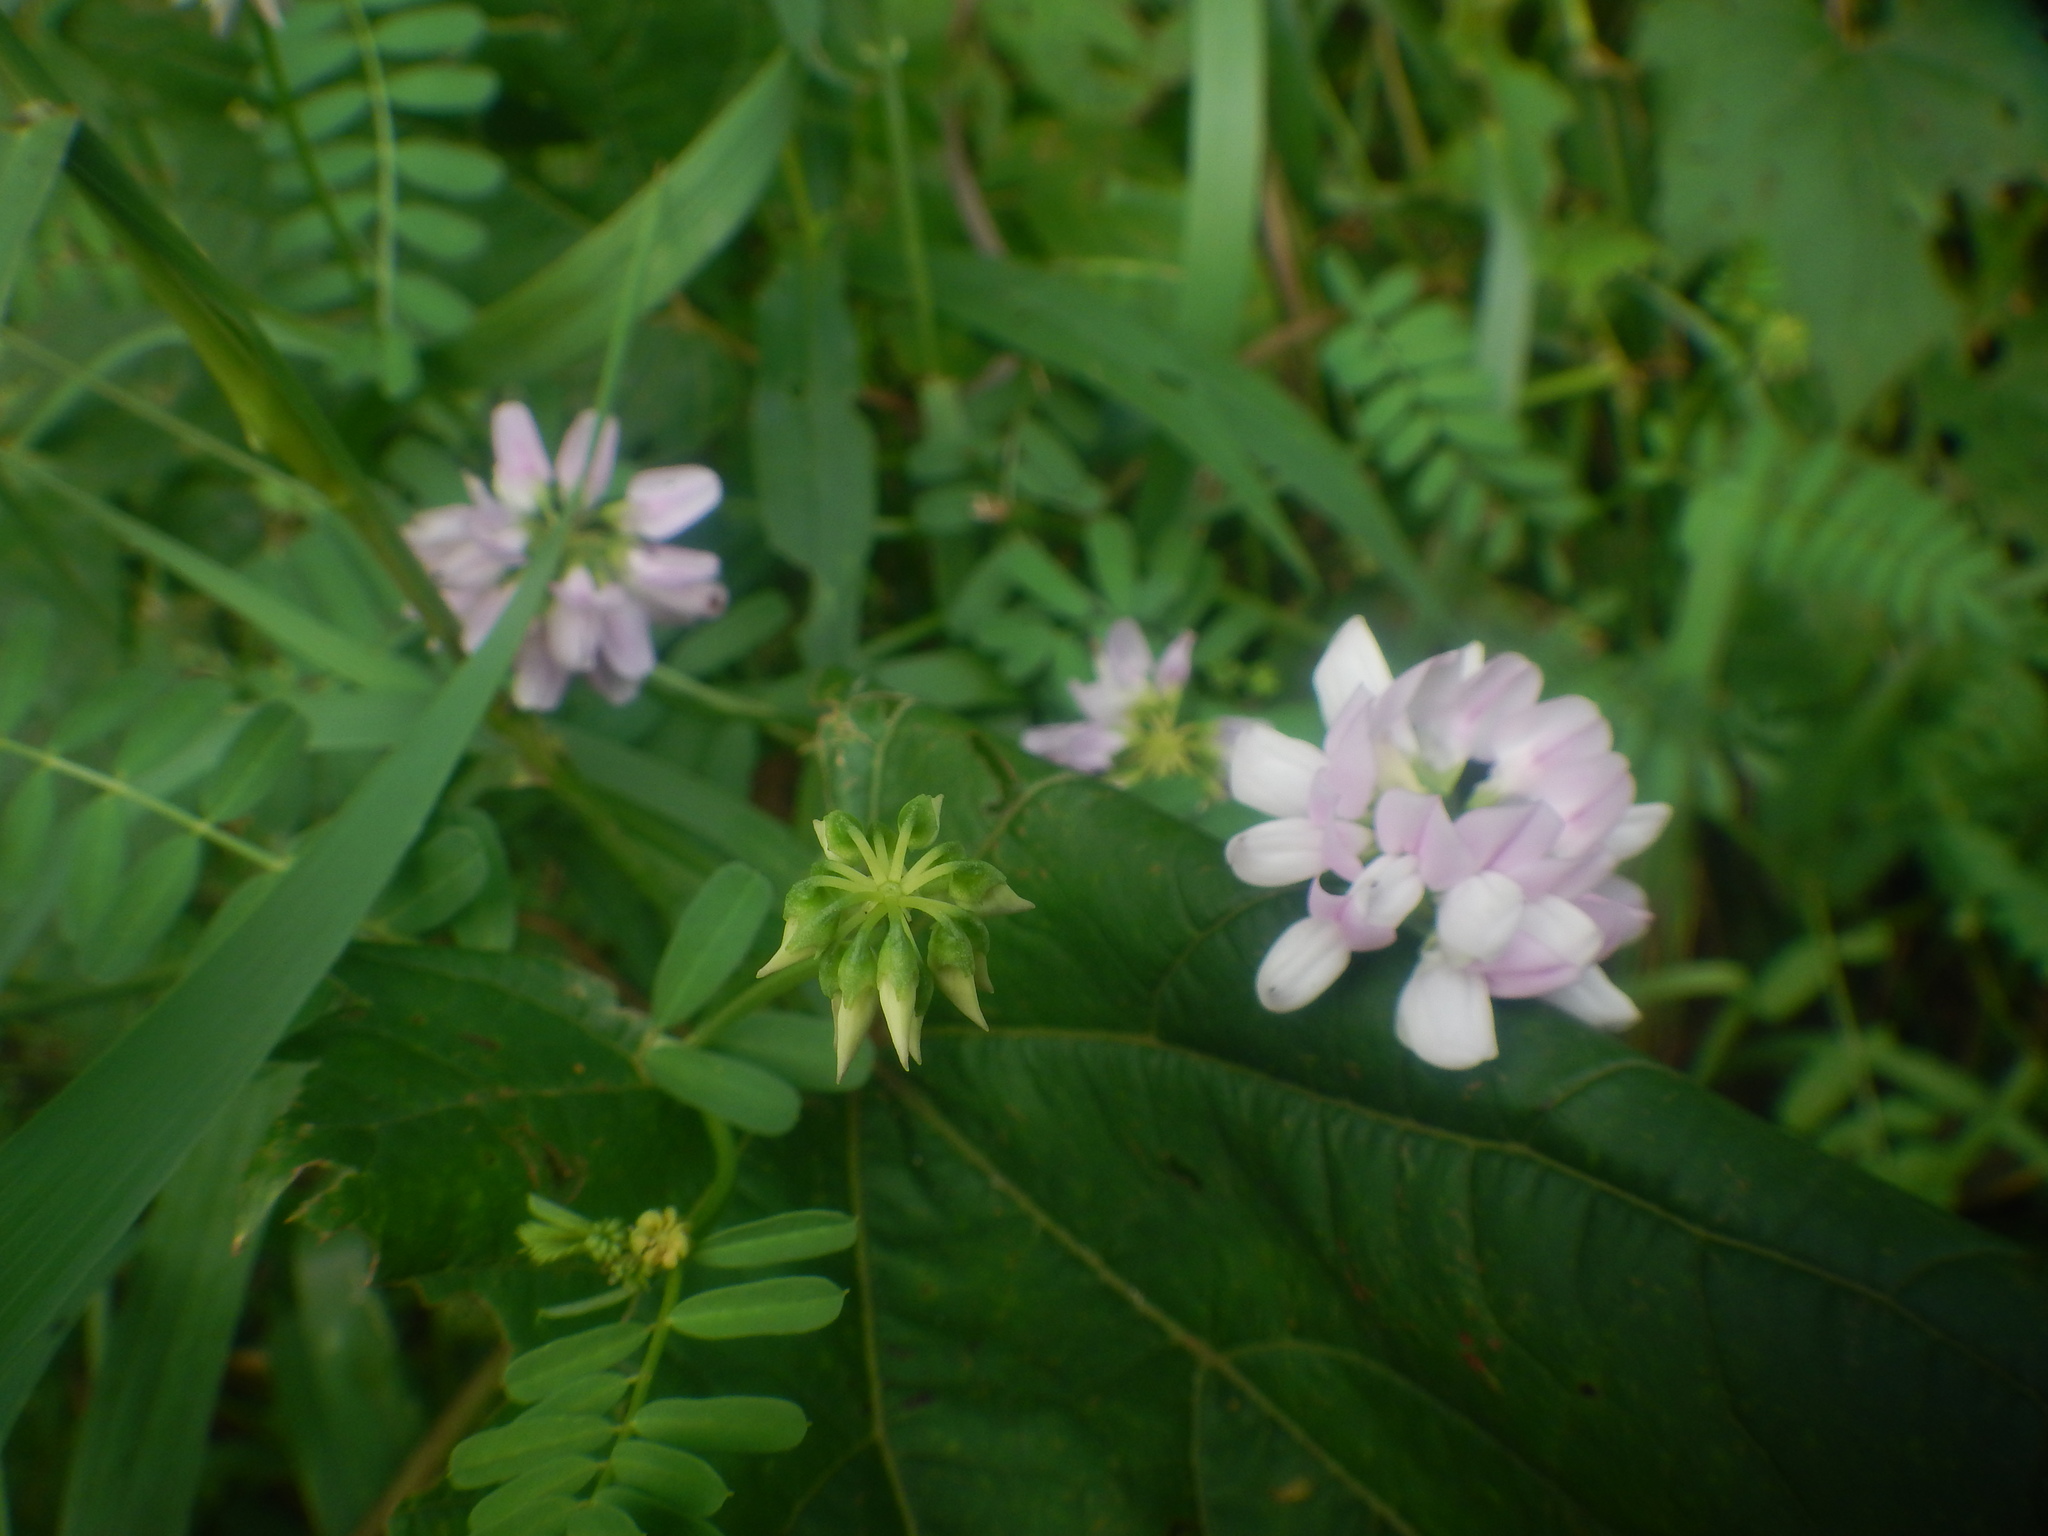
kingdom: Plantae
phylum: Tracheophyta
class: Magnoliopsida
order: Fabales
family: Fabaceae
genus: Coronilla
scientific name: Coronilla varia
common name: Crownvetch
